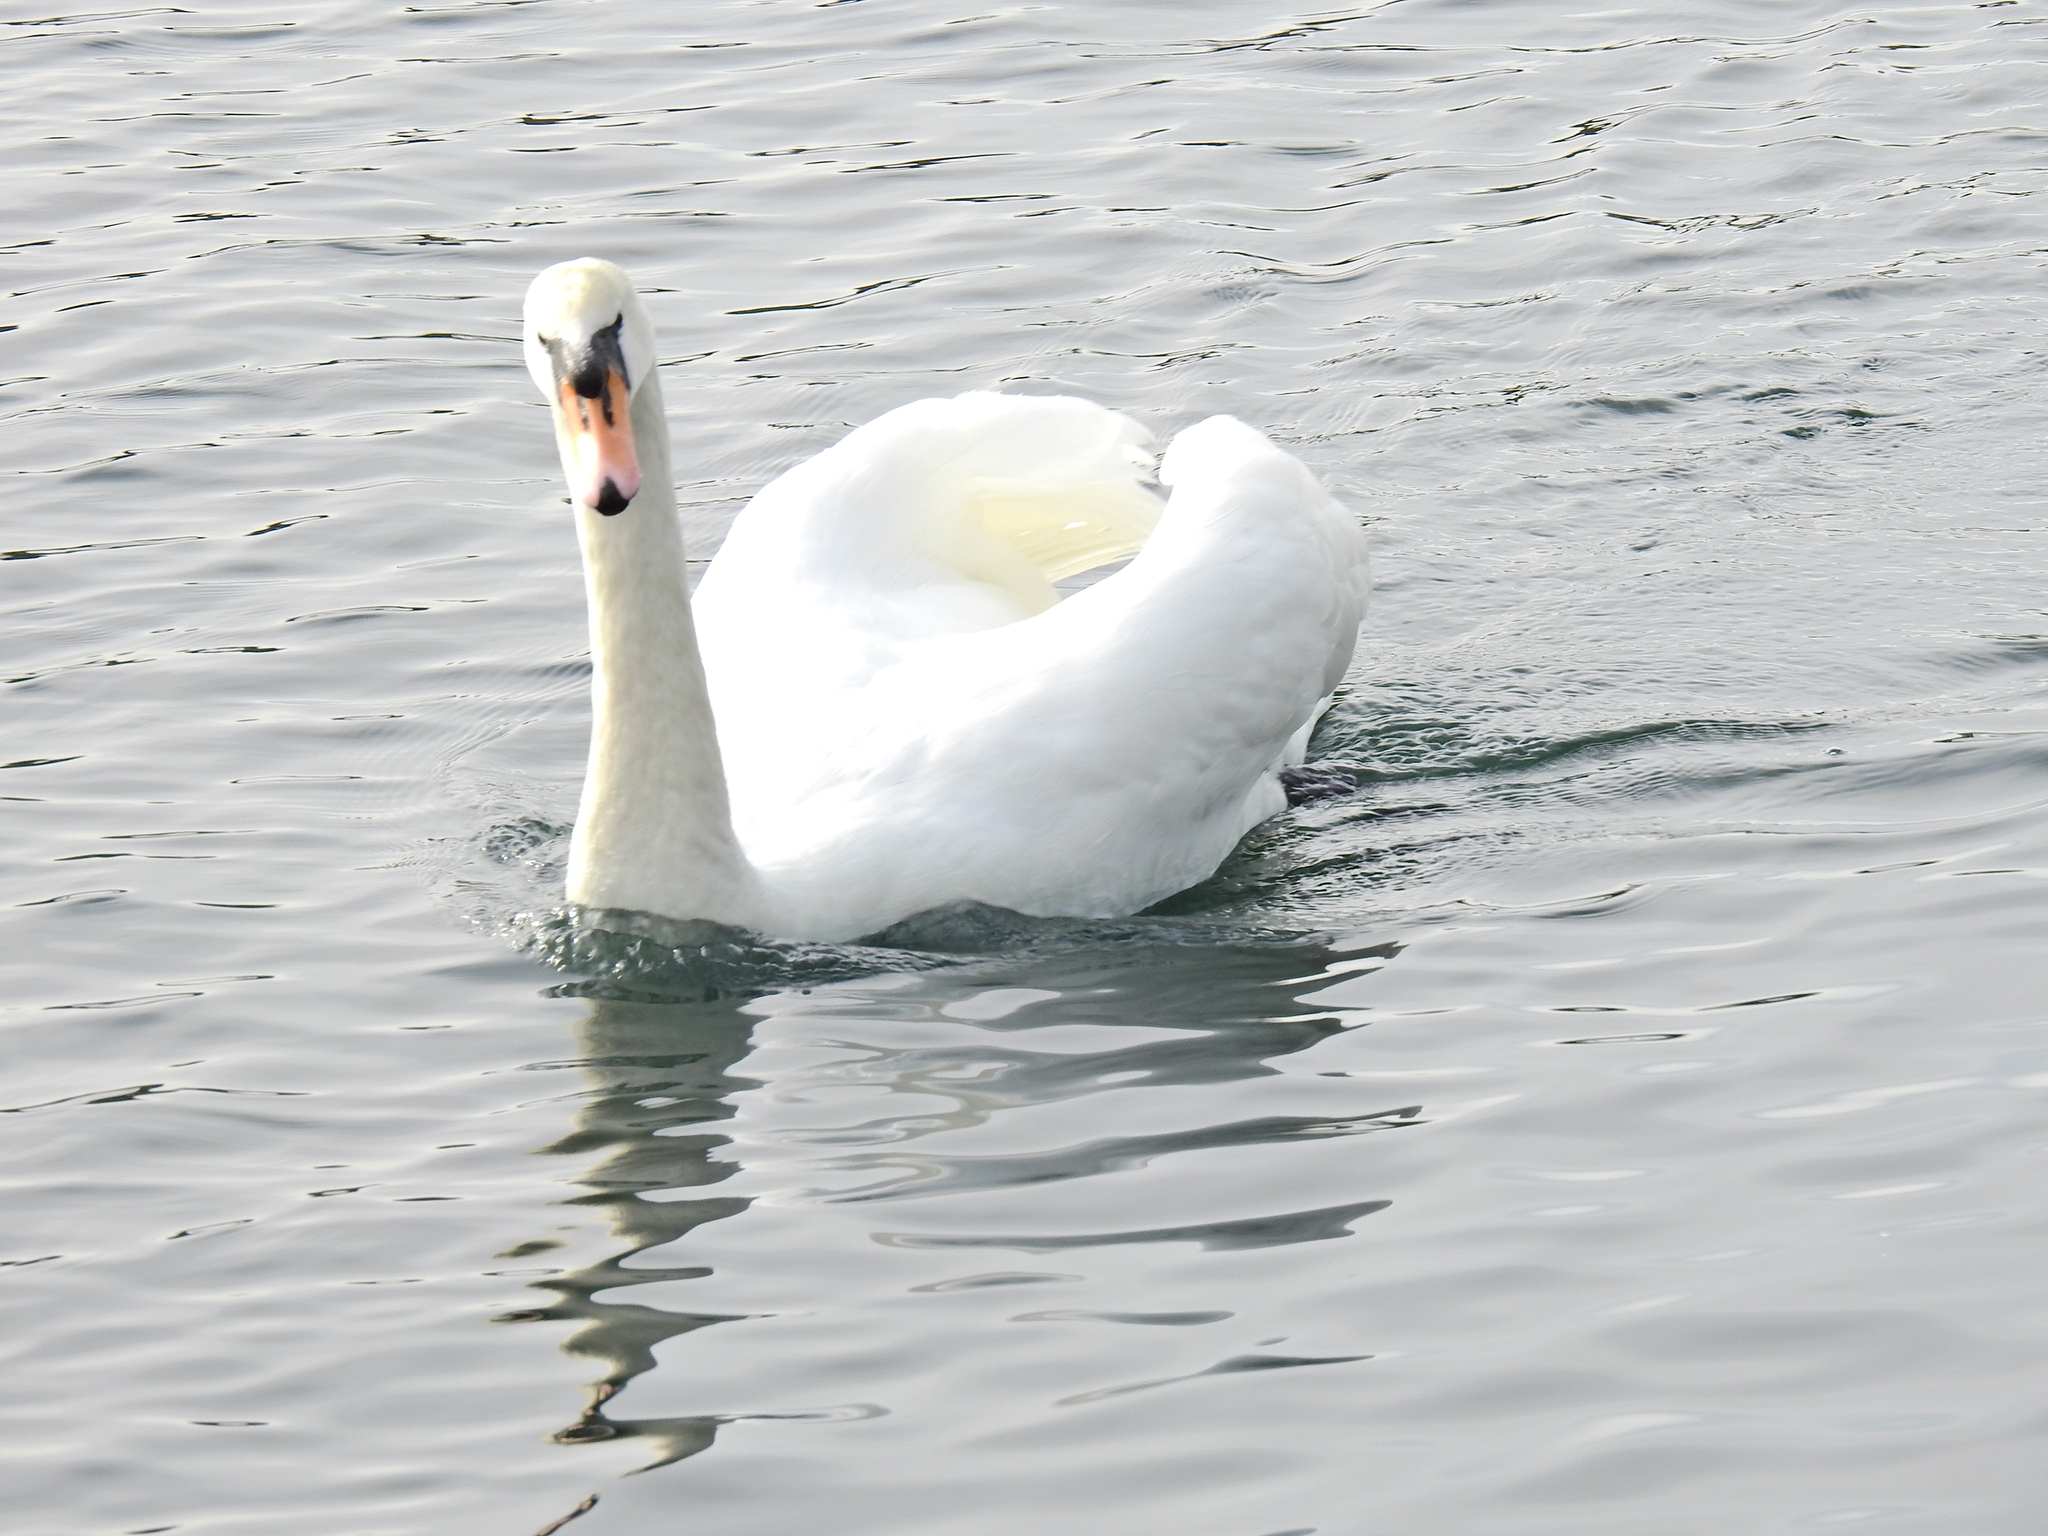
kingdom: Animalia
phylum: Chordata
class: Aves
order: Anseriformes
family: Anatidae
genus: Cygnus
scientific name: Cygnus olor
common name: Mute swan
